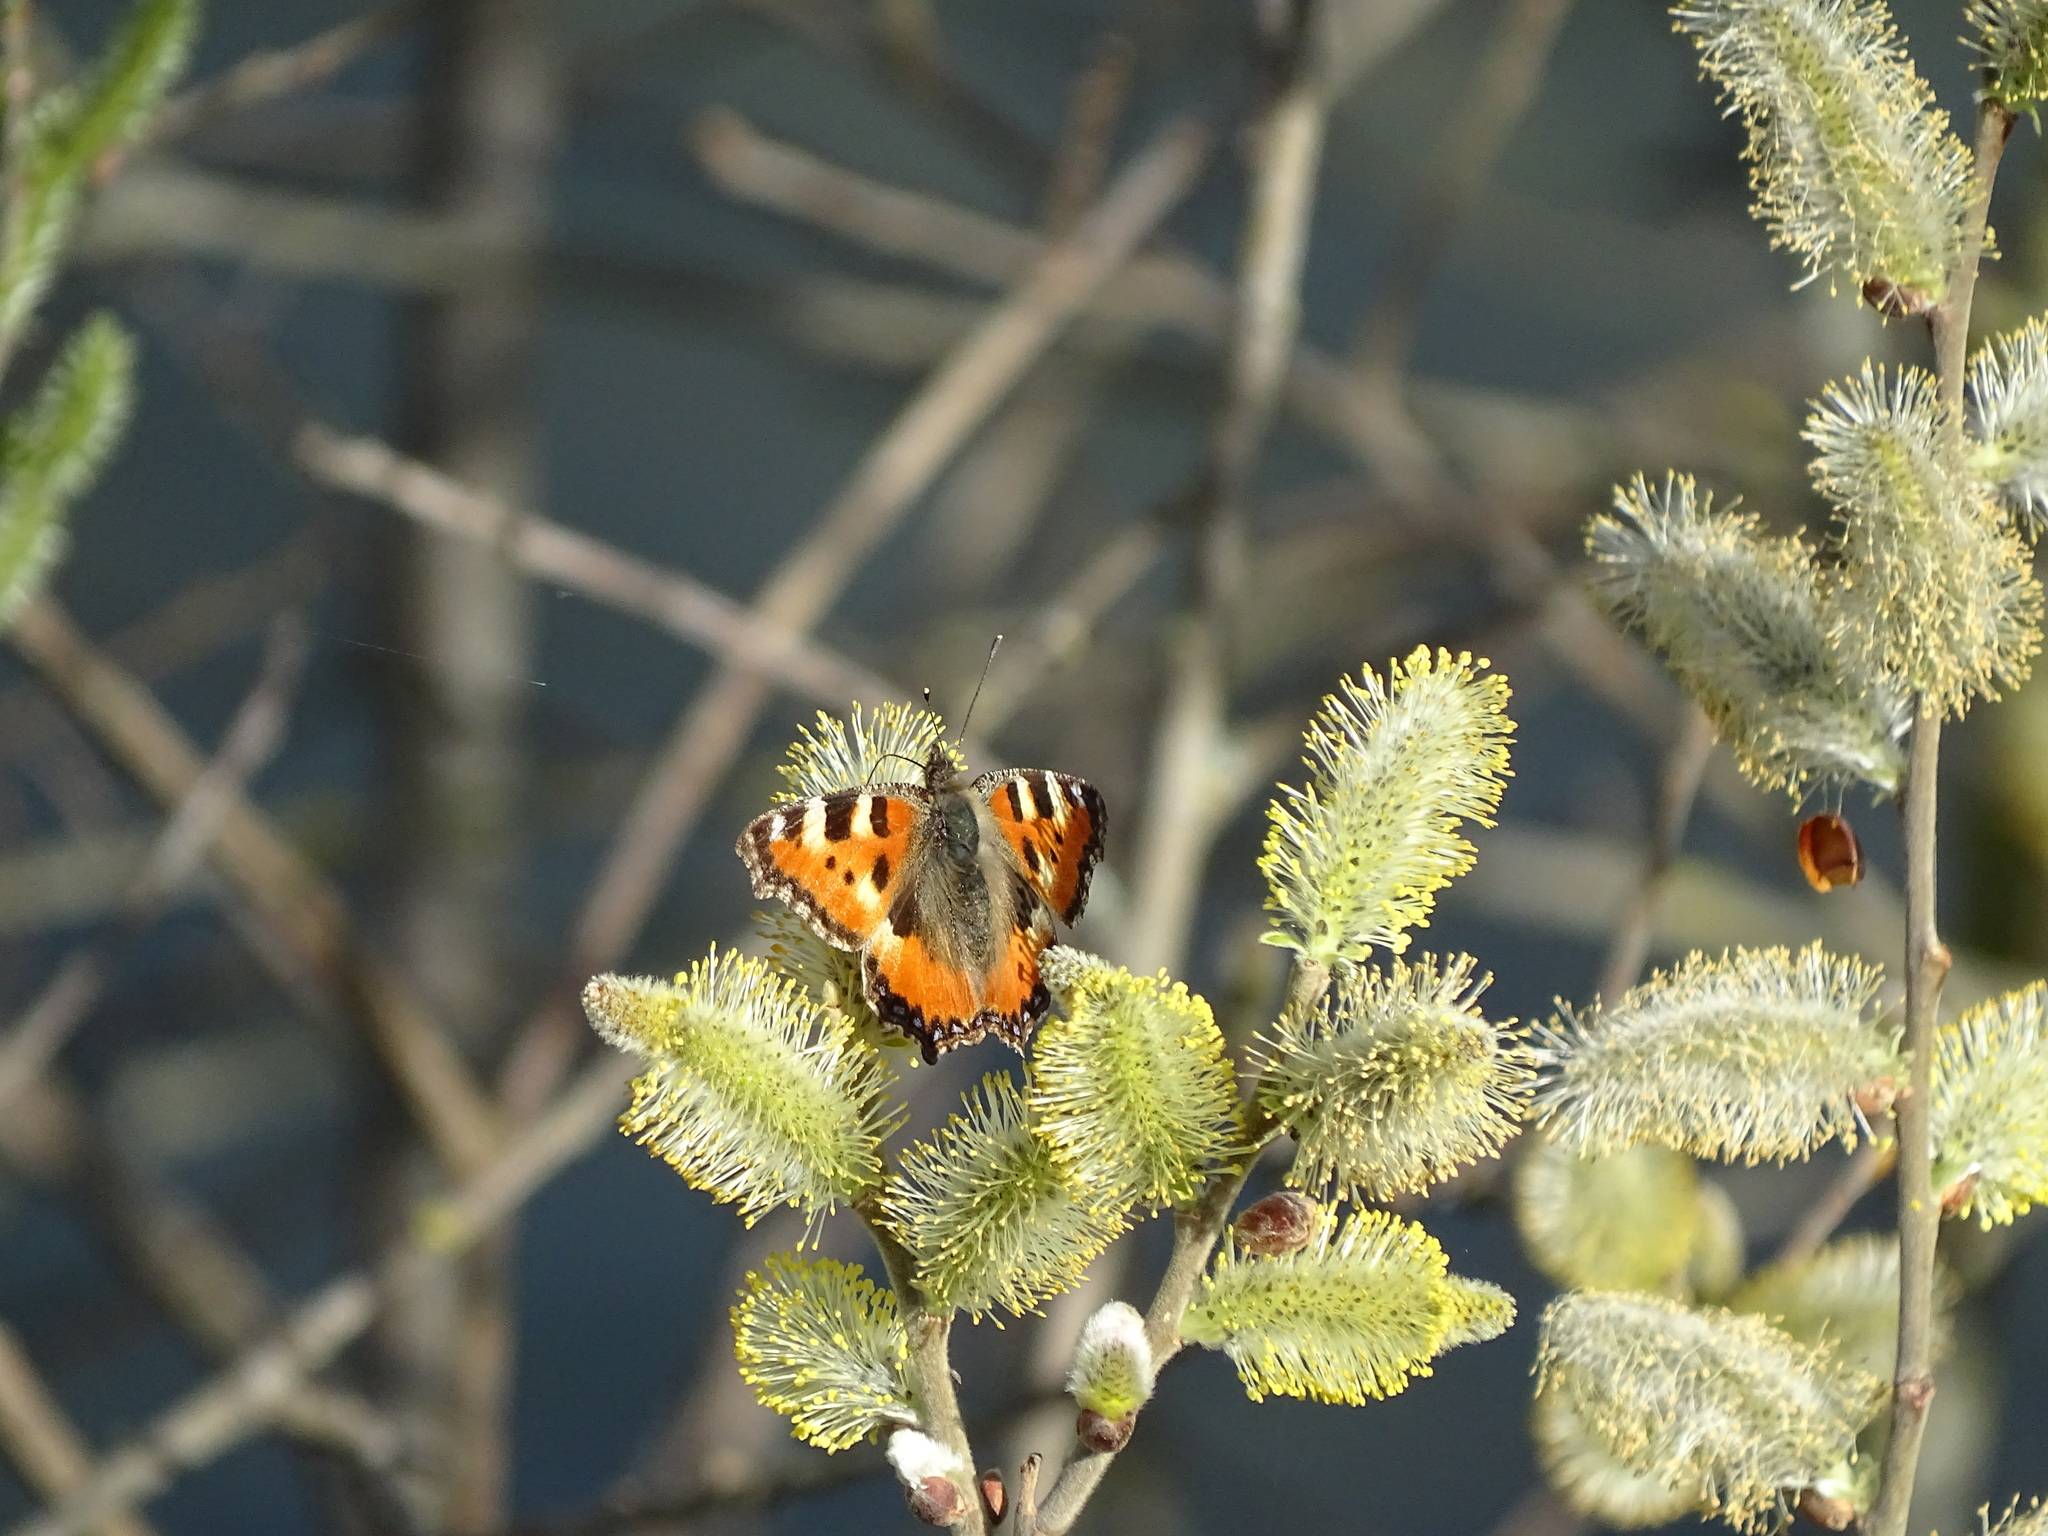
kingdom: Animalia
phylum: Arthropoda
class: Insecta
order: Lepidoptera
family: Nymphalidae
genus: Aglais
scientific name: Aglais urticae
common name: Small tortoiseshell
